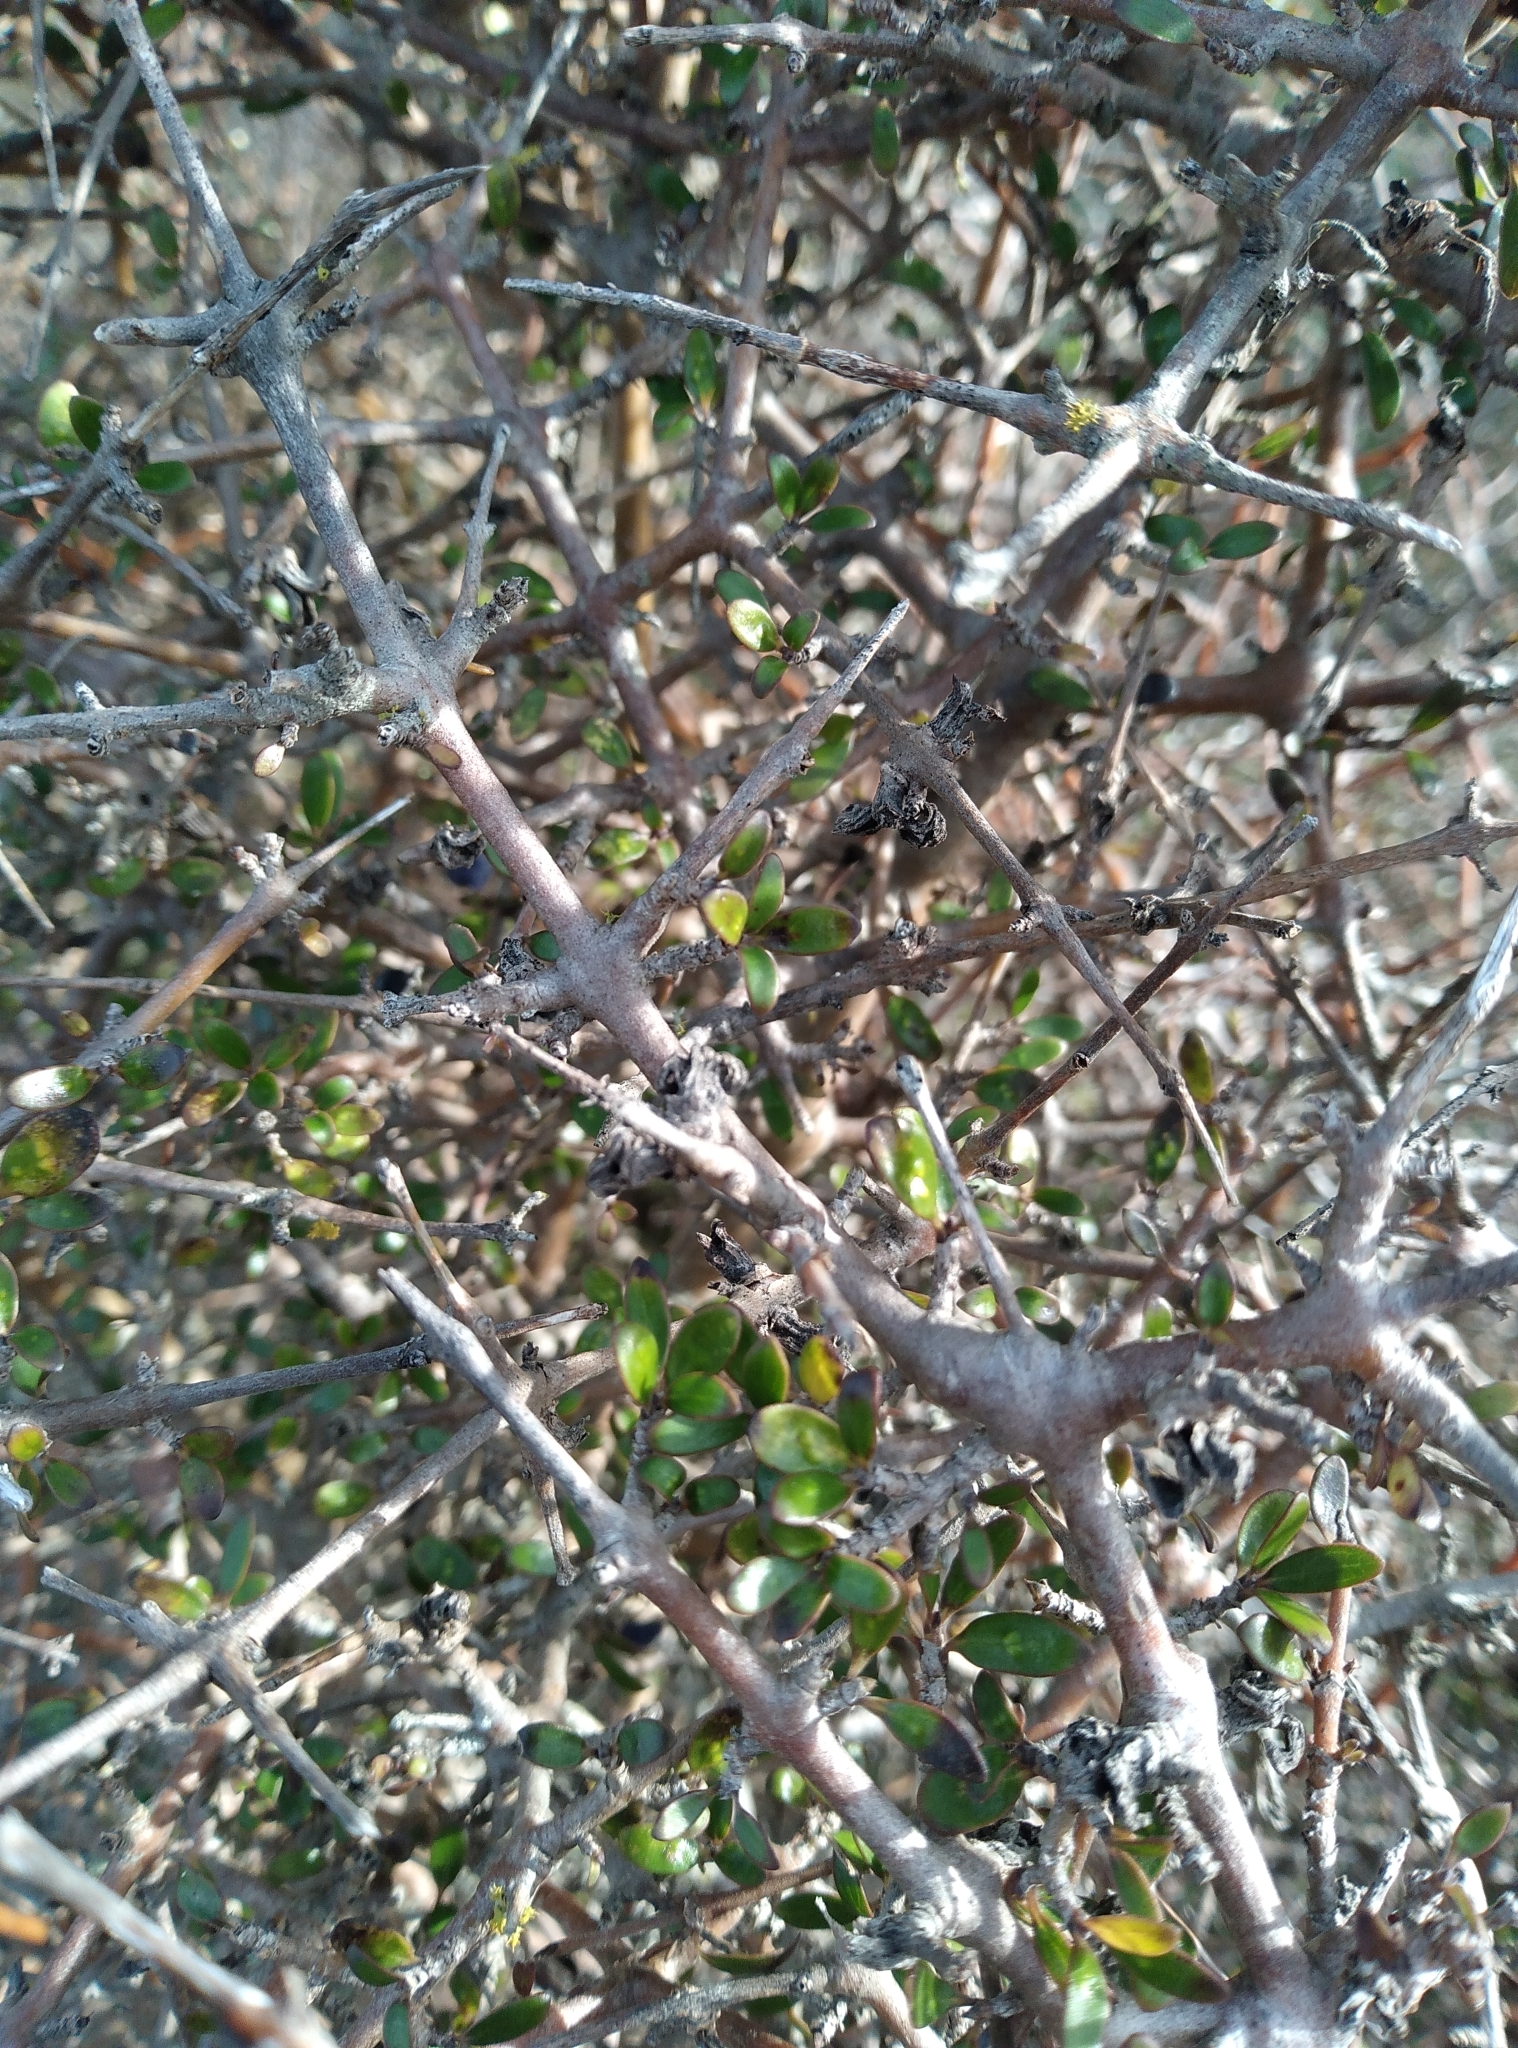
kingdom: Plantae
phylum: Tracheophyta
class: Magnoliopsida
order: Gentianales
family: Rubiaceae
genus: Coprosma
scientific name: Coprosma propinqua
